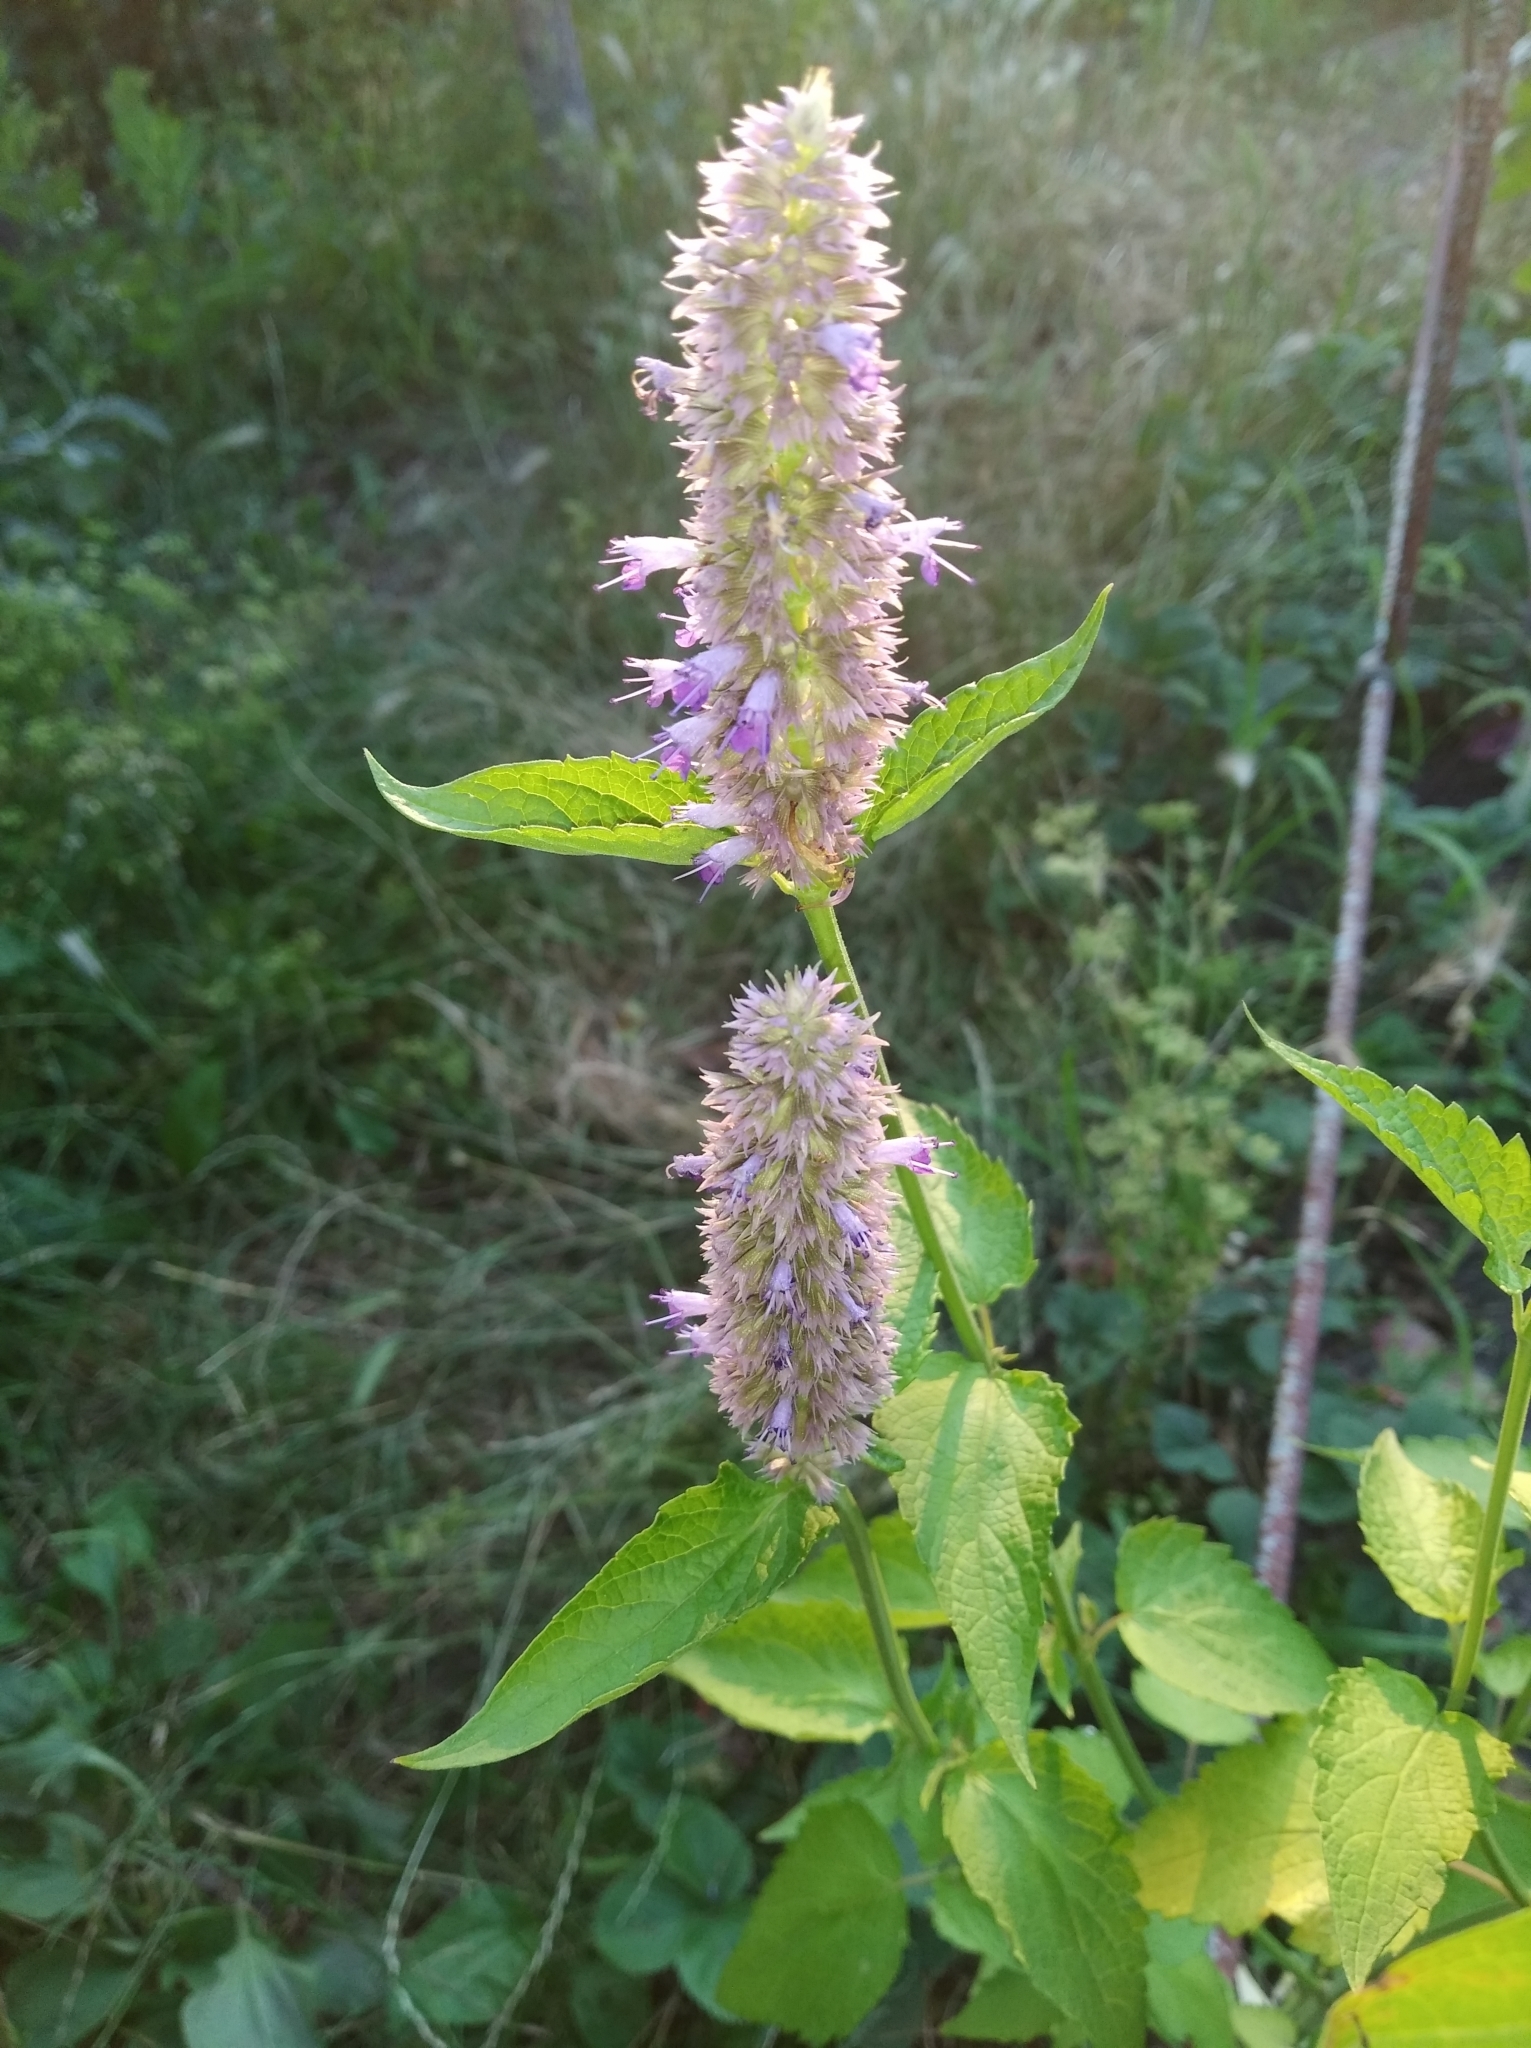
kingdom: Plantae
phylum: Tracheophyta
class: Magnoliopsida
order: Lamiales
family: Lamiaceae
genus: Agastache
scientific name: Agastache foeniculum
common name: Anise hyssop
